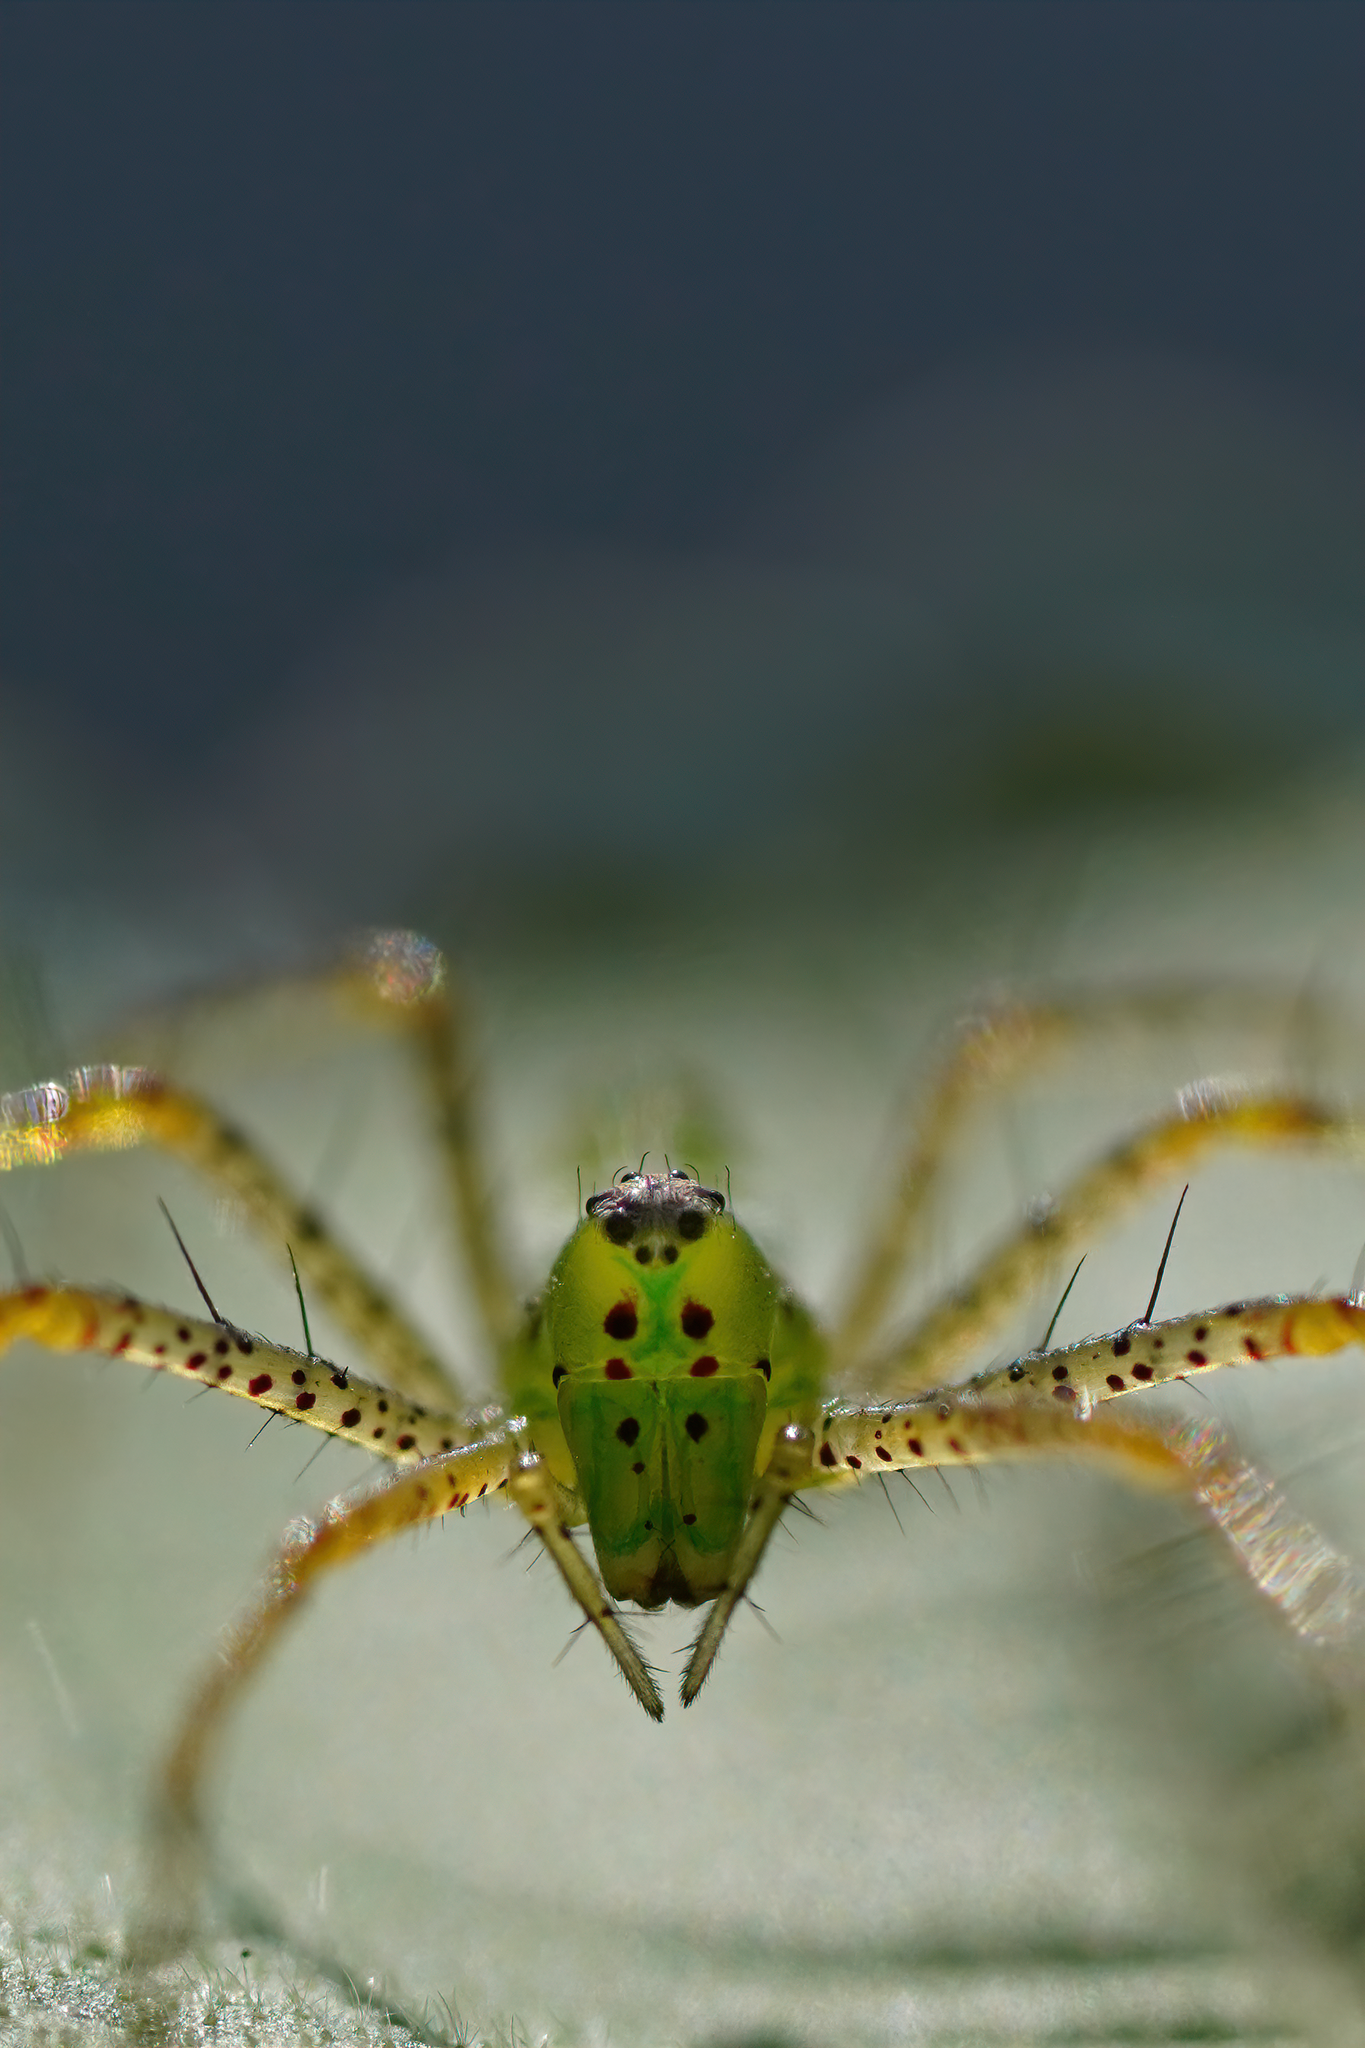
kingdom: Animalia
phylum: Arthropoda
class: Arachnida
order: Araneae
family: Oxyopidae
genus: Peucetia
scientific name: Peucetia viridans
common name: Lynx spiders
